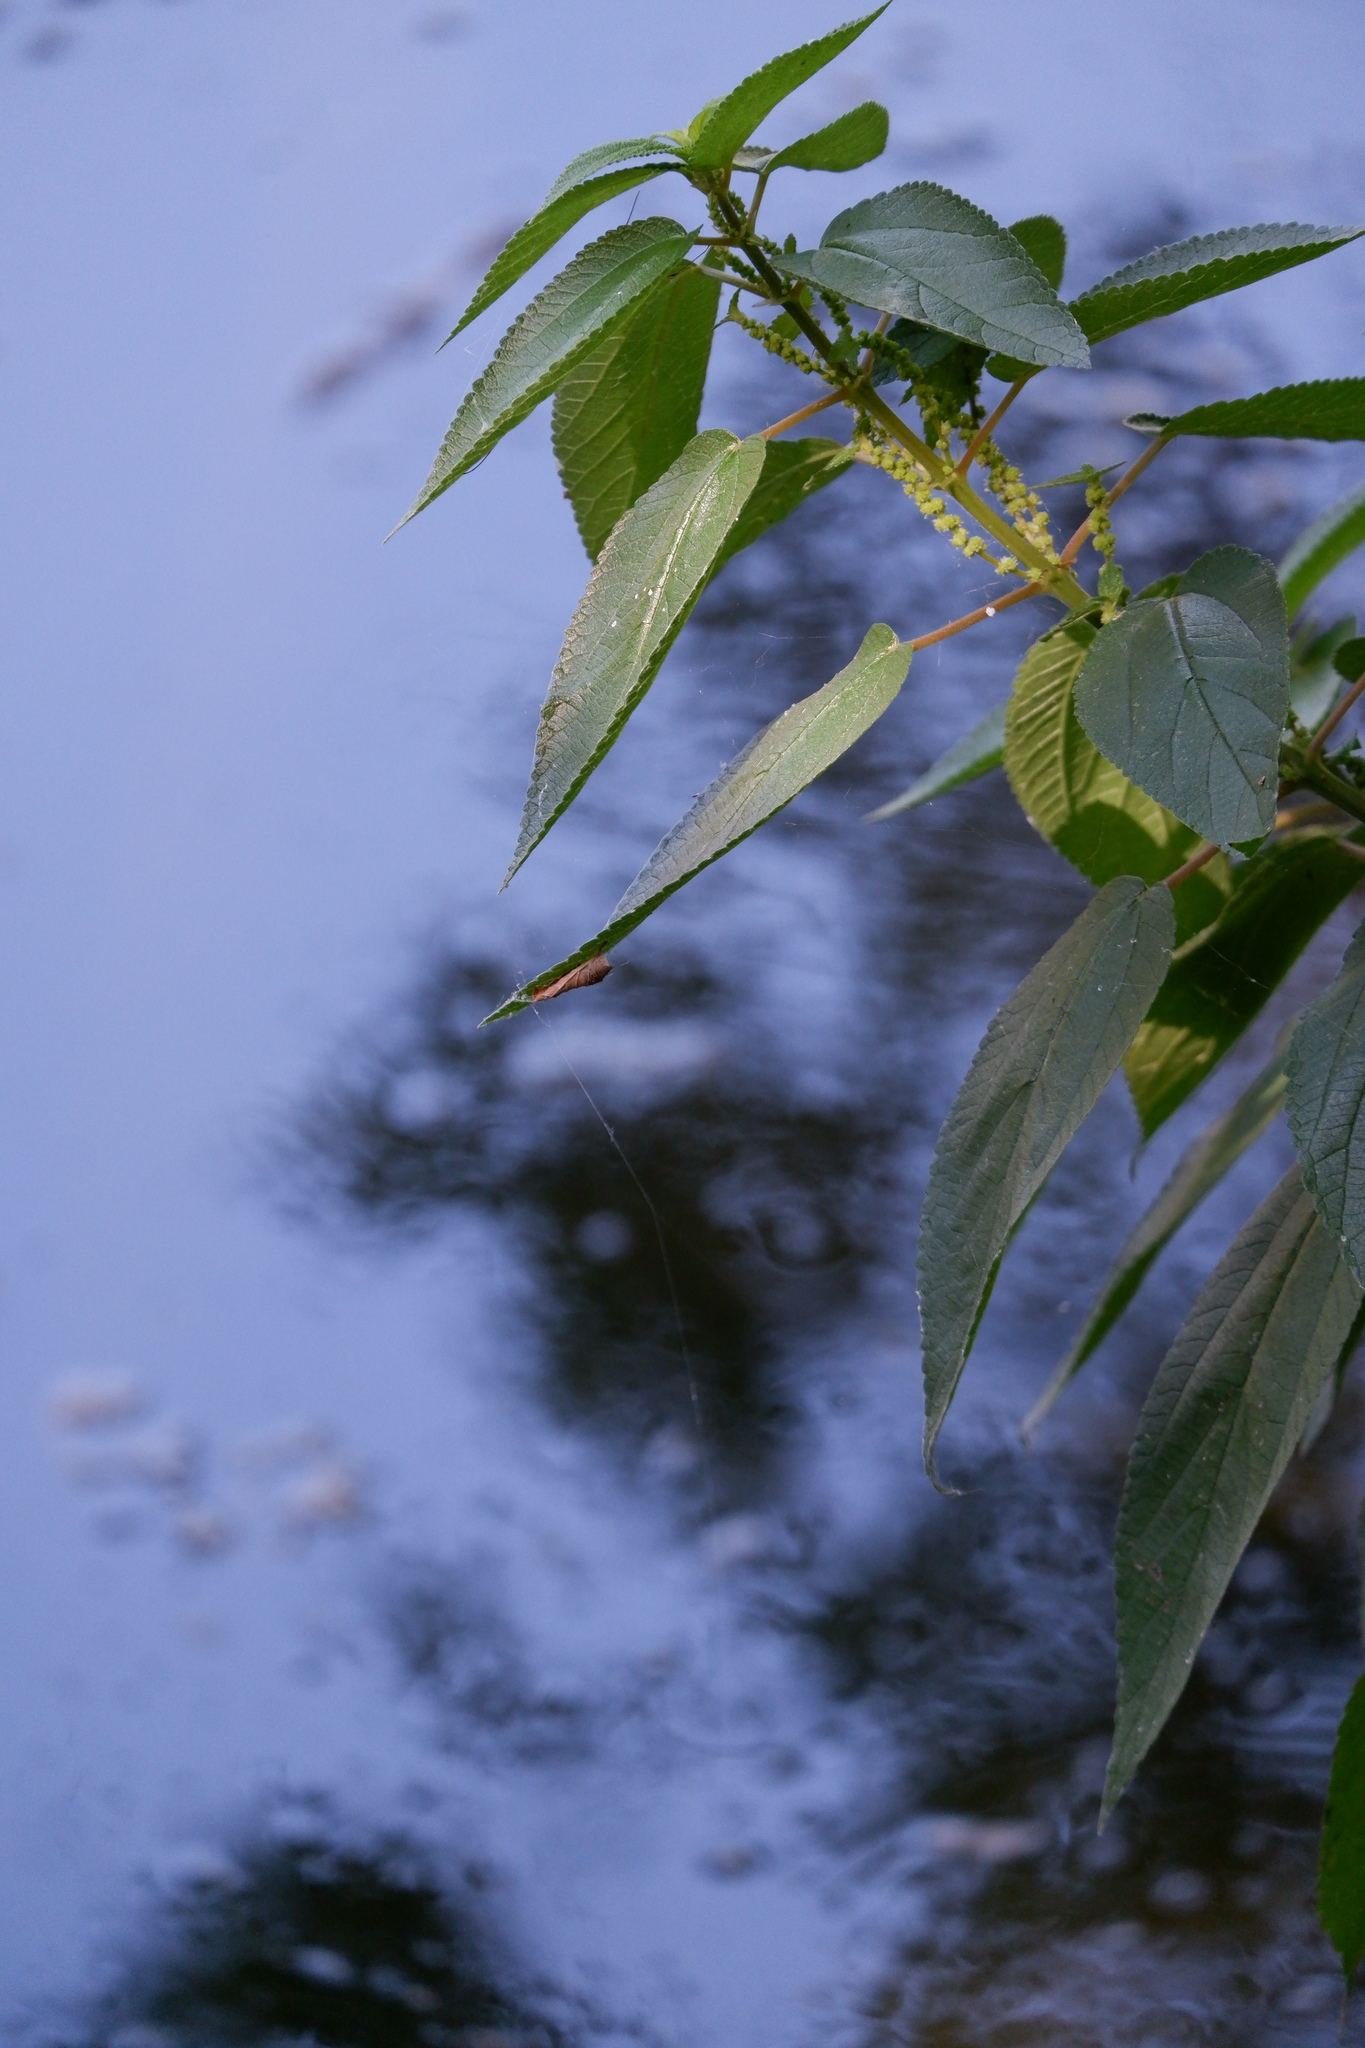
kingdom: Plantae
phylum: Tracheophyta
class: Magnoliopsida
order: Rosales
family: Urticaceae
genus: Boehmeria
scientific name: Boehmeria cylindrica
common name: Bog-hemp
